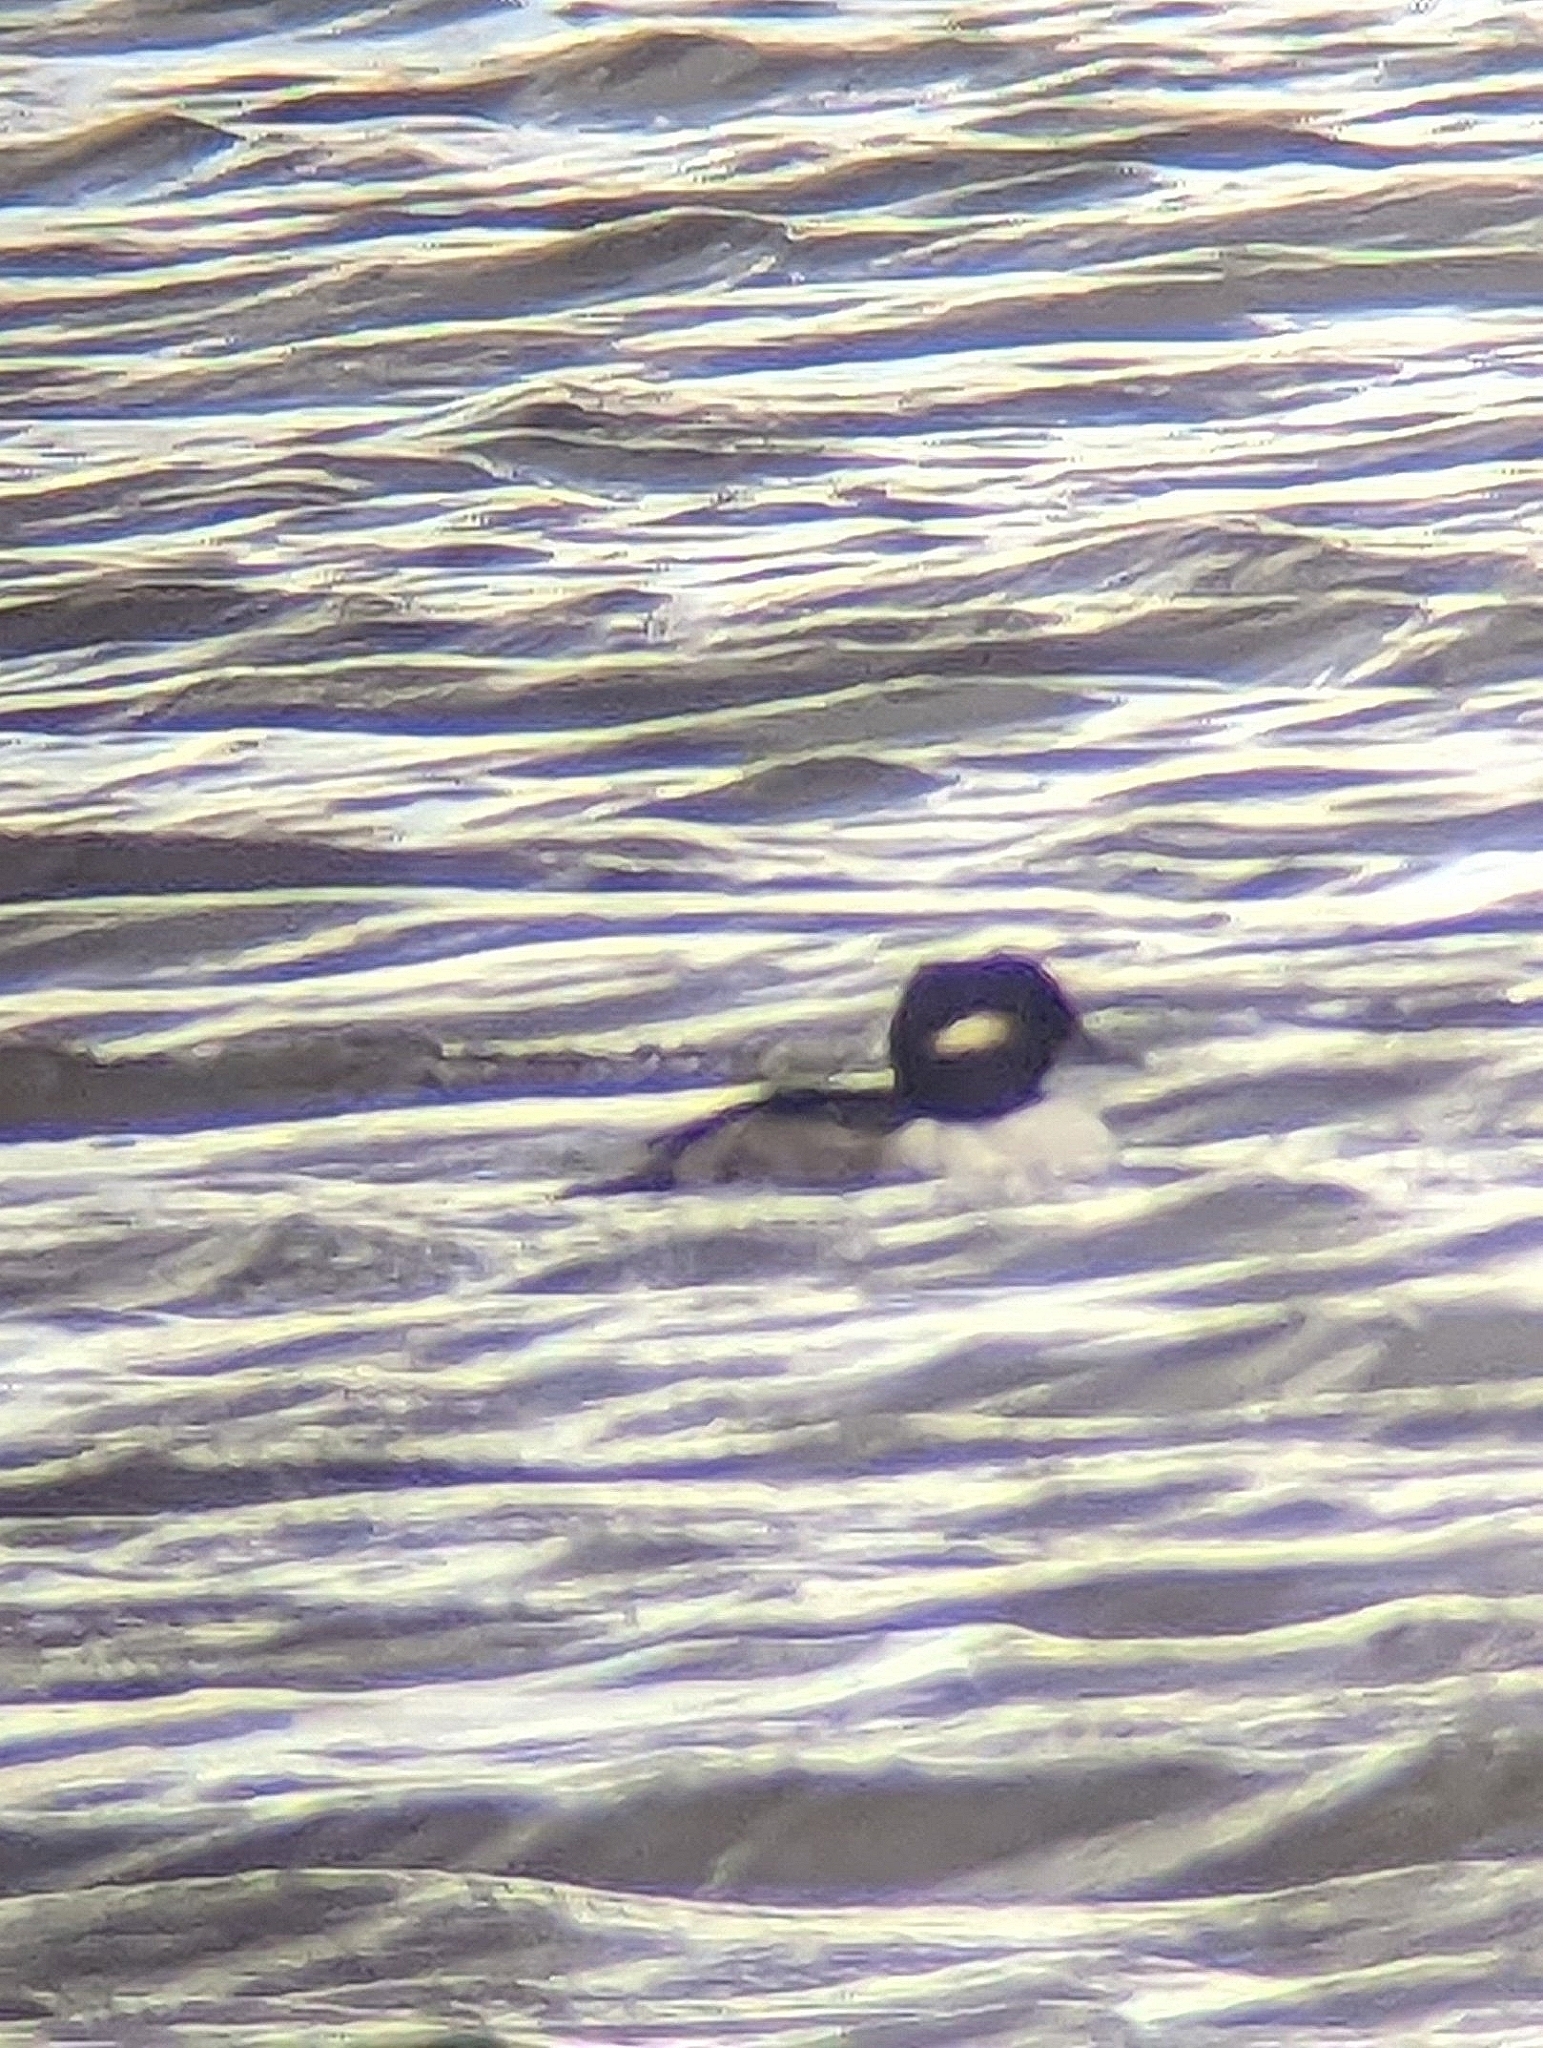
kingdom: Animalia
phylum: Chordata
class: Aves
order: Anseriformes
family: Anatidae
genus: Bucephala
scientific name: Bucephala albeola
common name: Bufflehead
